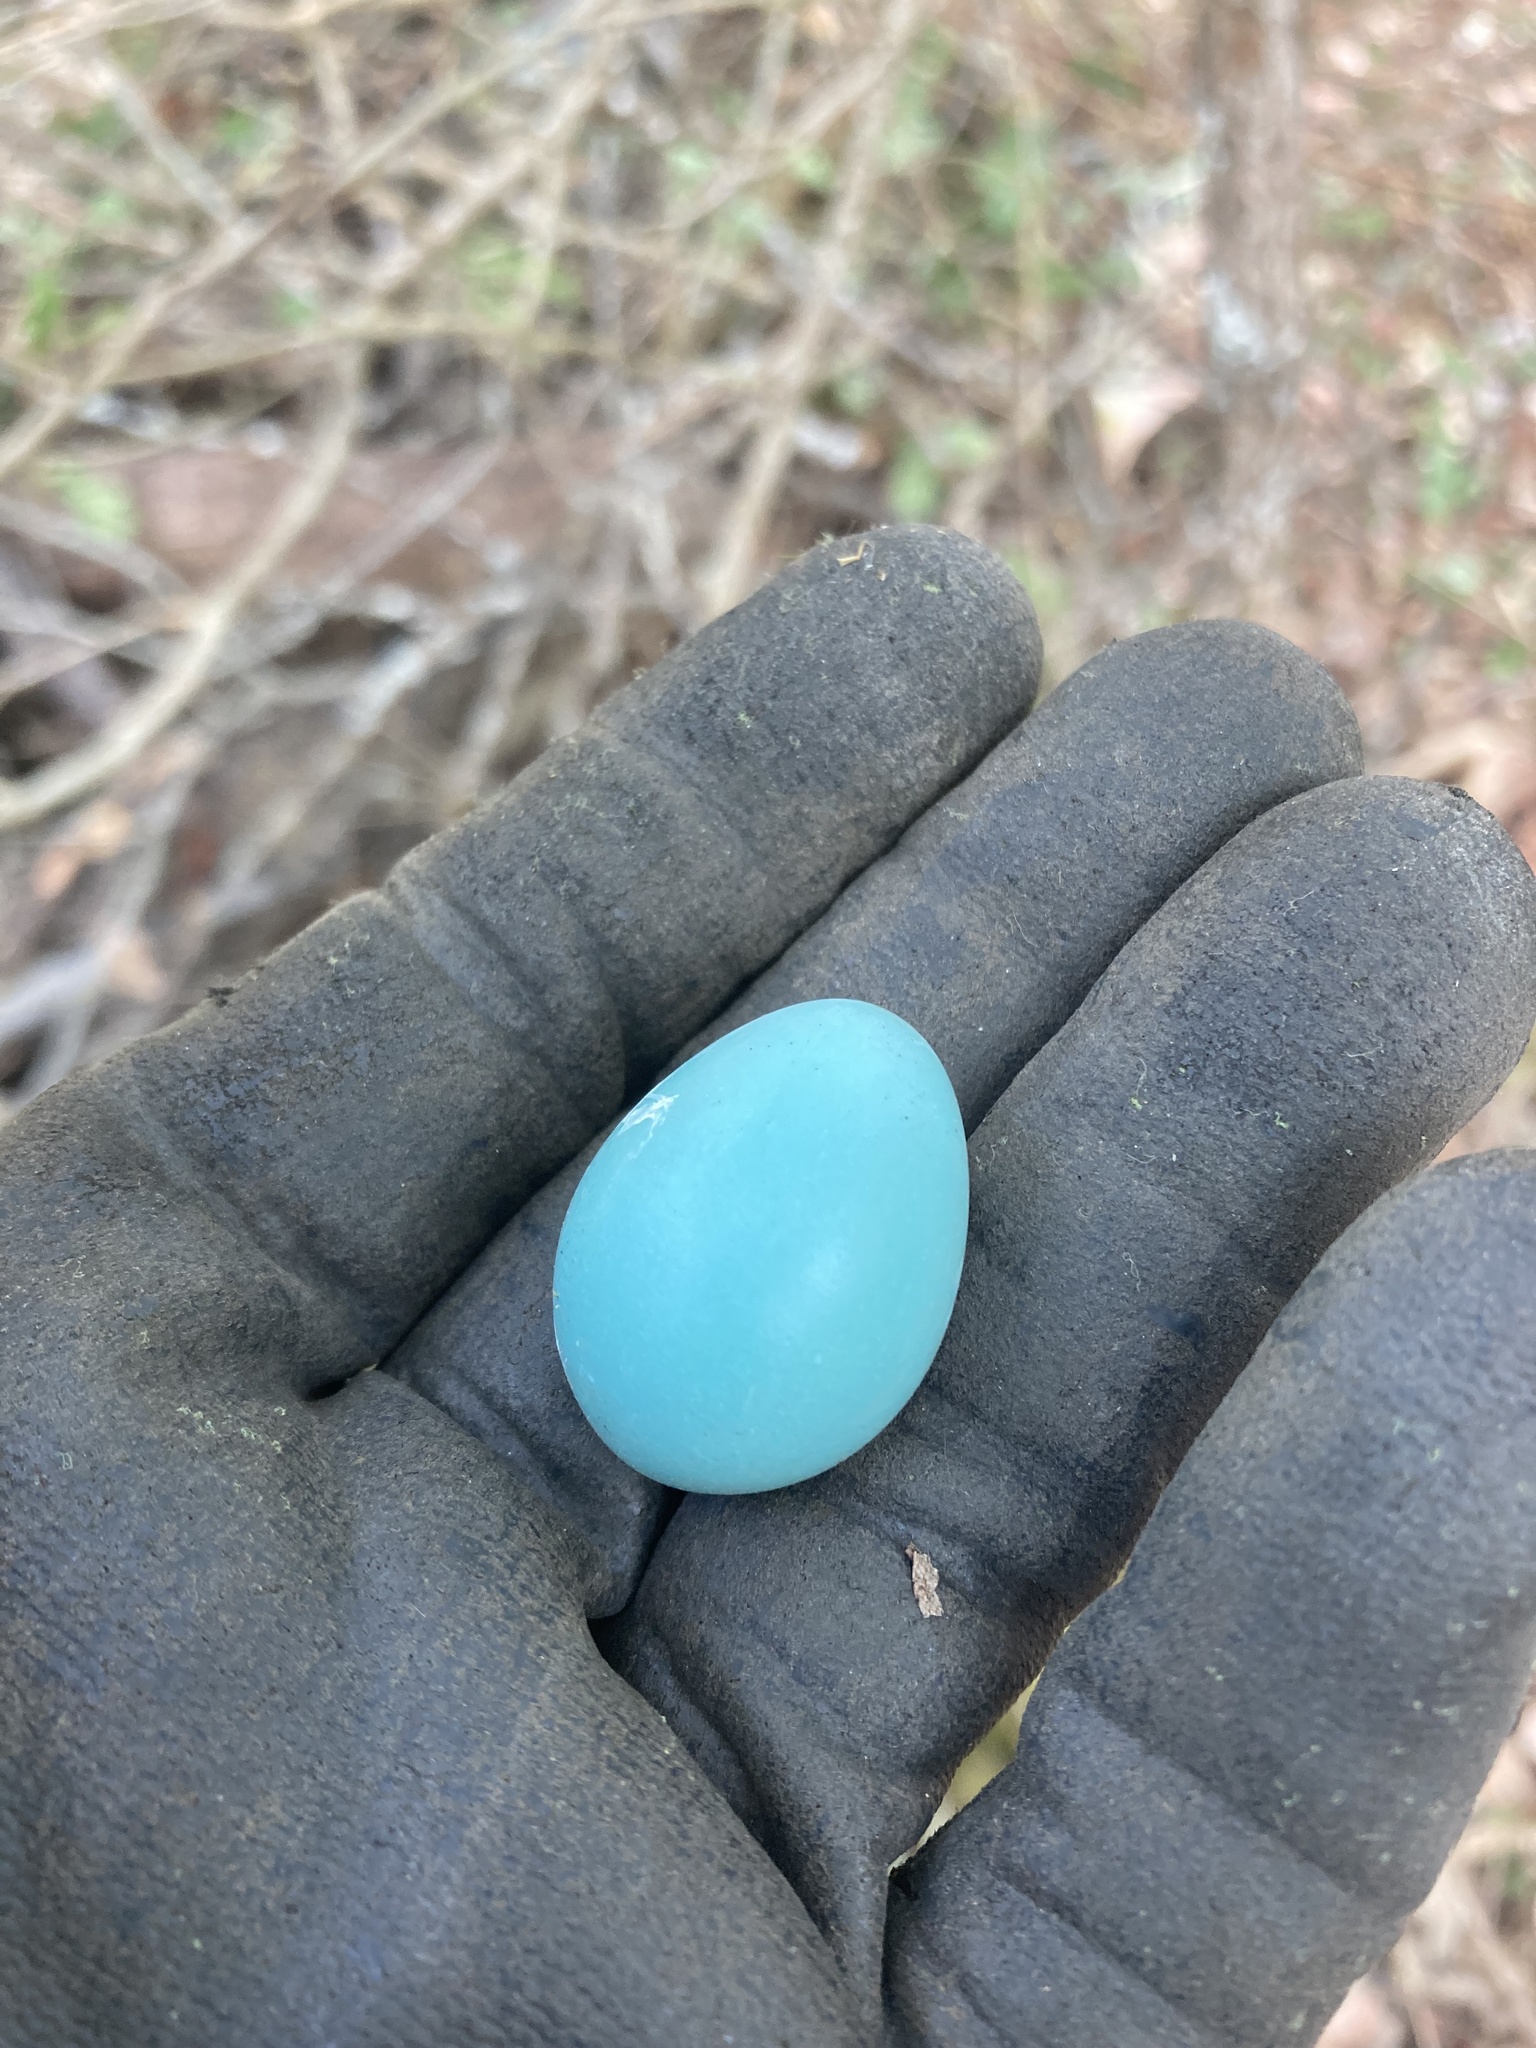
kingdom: Animalia
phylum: Chordata
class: Aves
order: Passeriformes
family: Turdidae
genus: Turdus
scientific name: Turdus migratorius
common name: American robin
